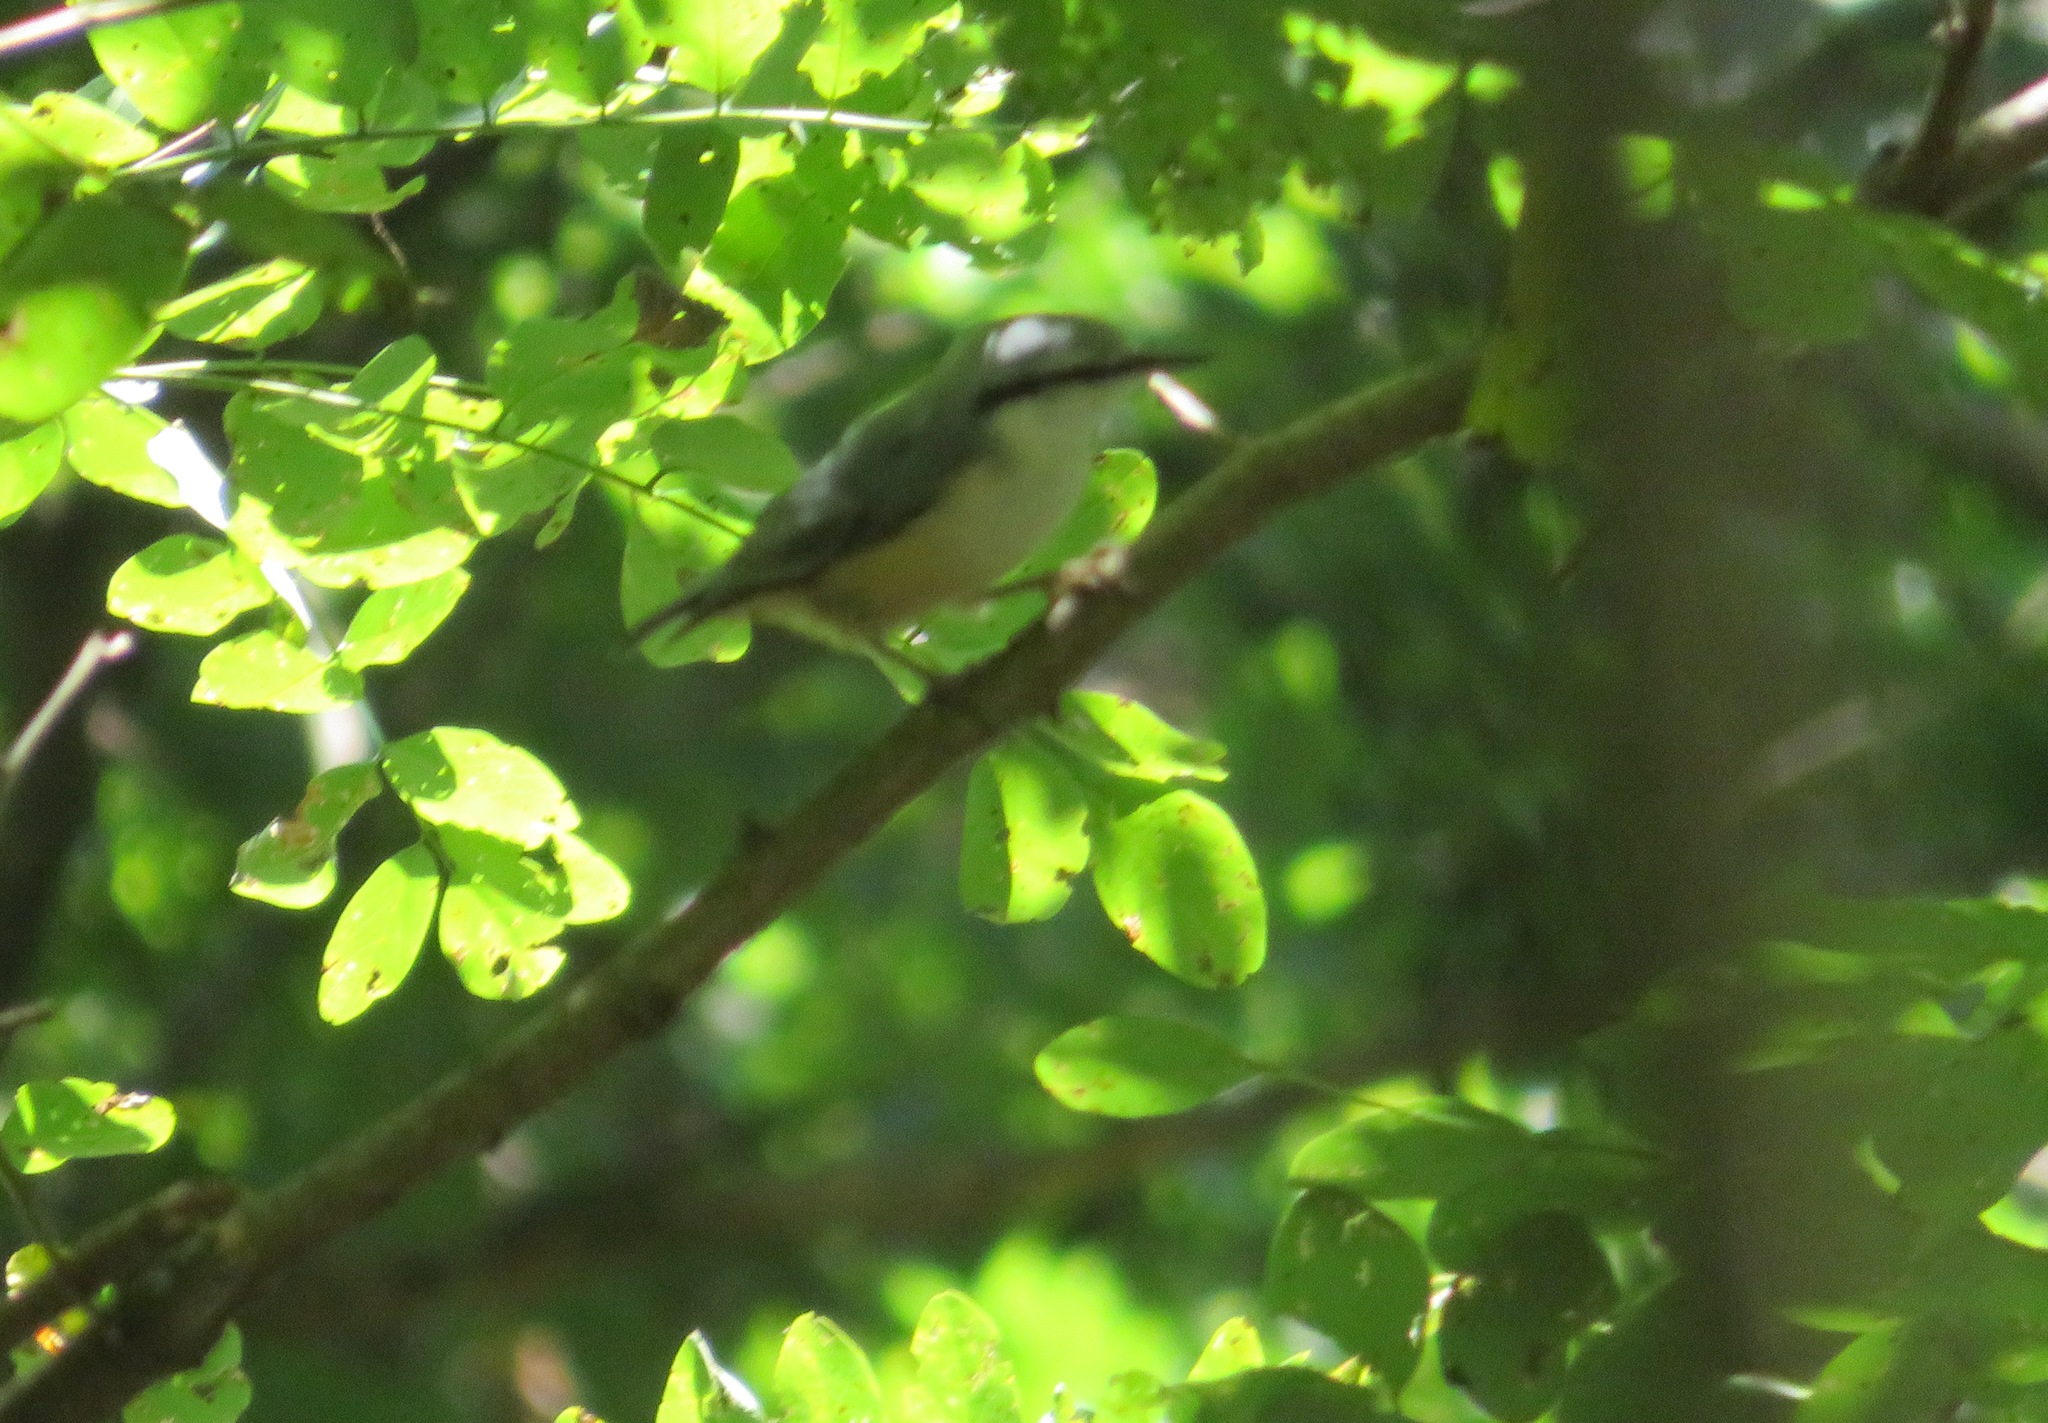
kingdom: Animalia
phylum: Chordata
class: Aves
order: Passeriformes
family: Sittidae
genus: Sitta
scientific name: Sitta europaea
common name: Eurasian nuthatch
